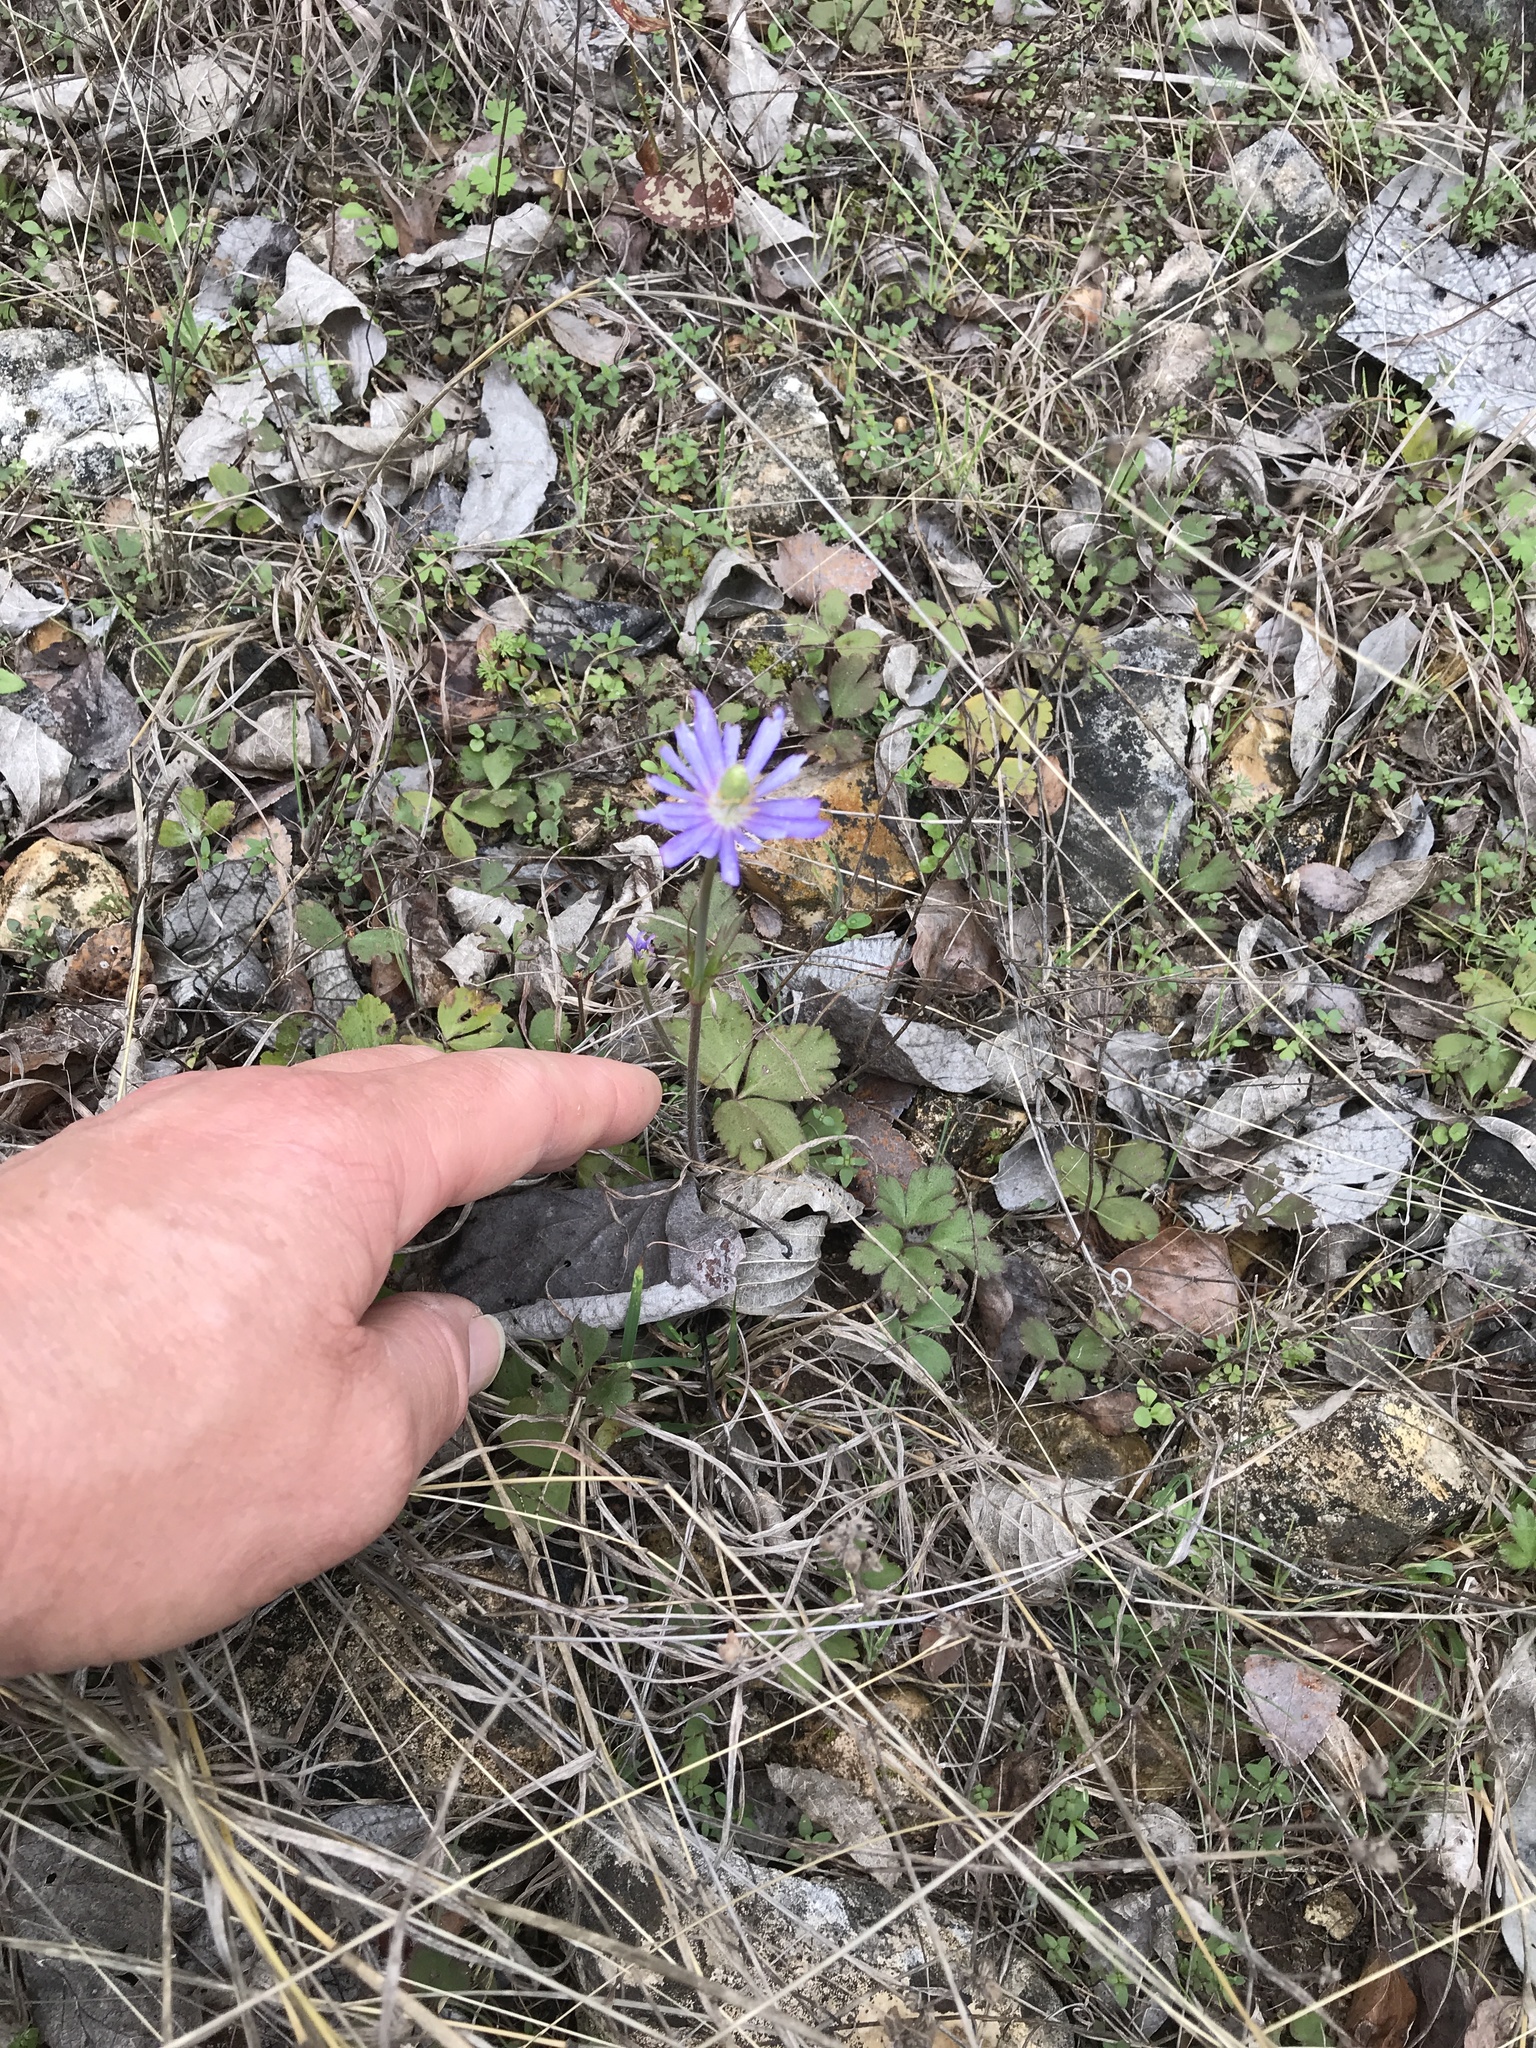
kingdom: Plantae
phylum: Tracheophyta
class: Magnoliopsida
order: Ranunculales
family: Ranunculaceae
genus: Anemone
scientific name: Anemone berlandieri
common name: Ten-petal anemone
